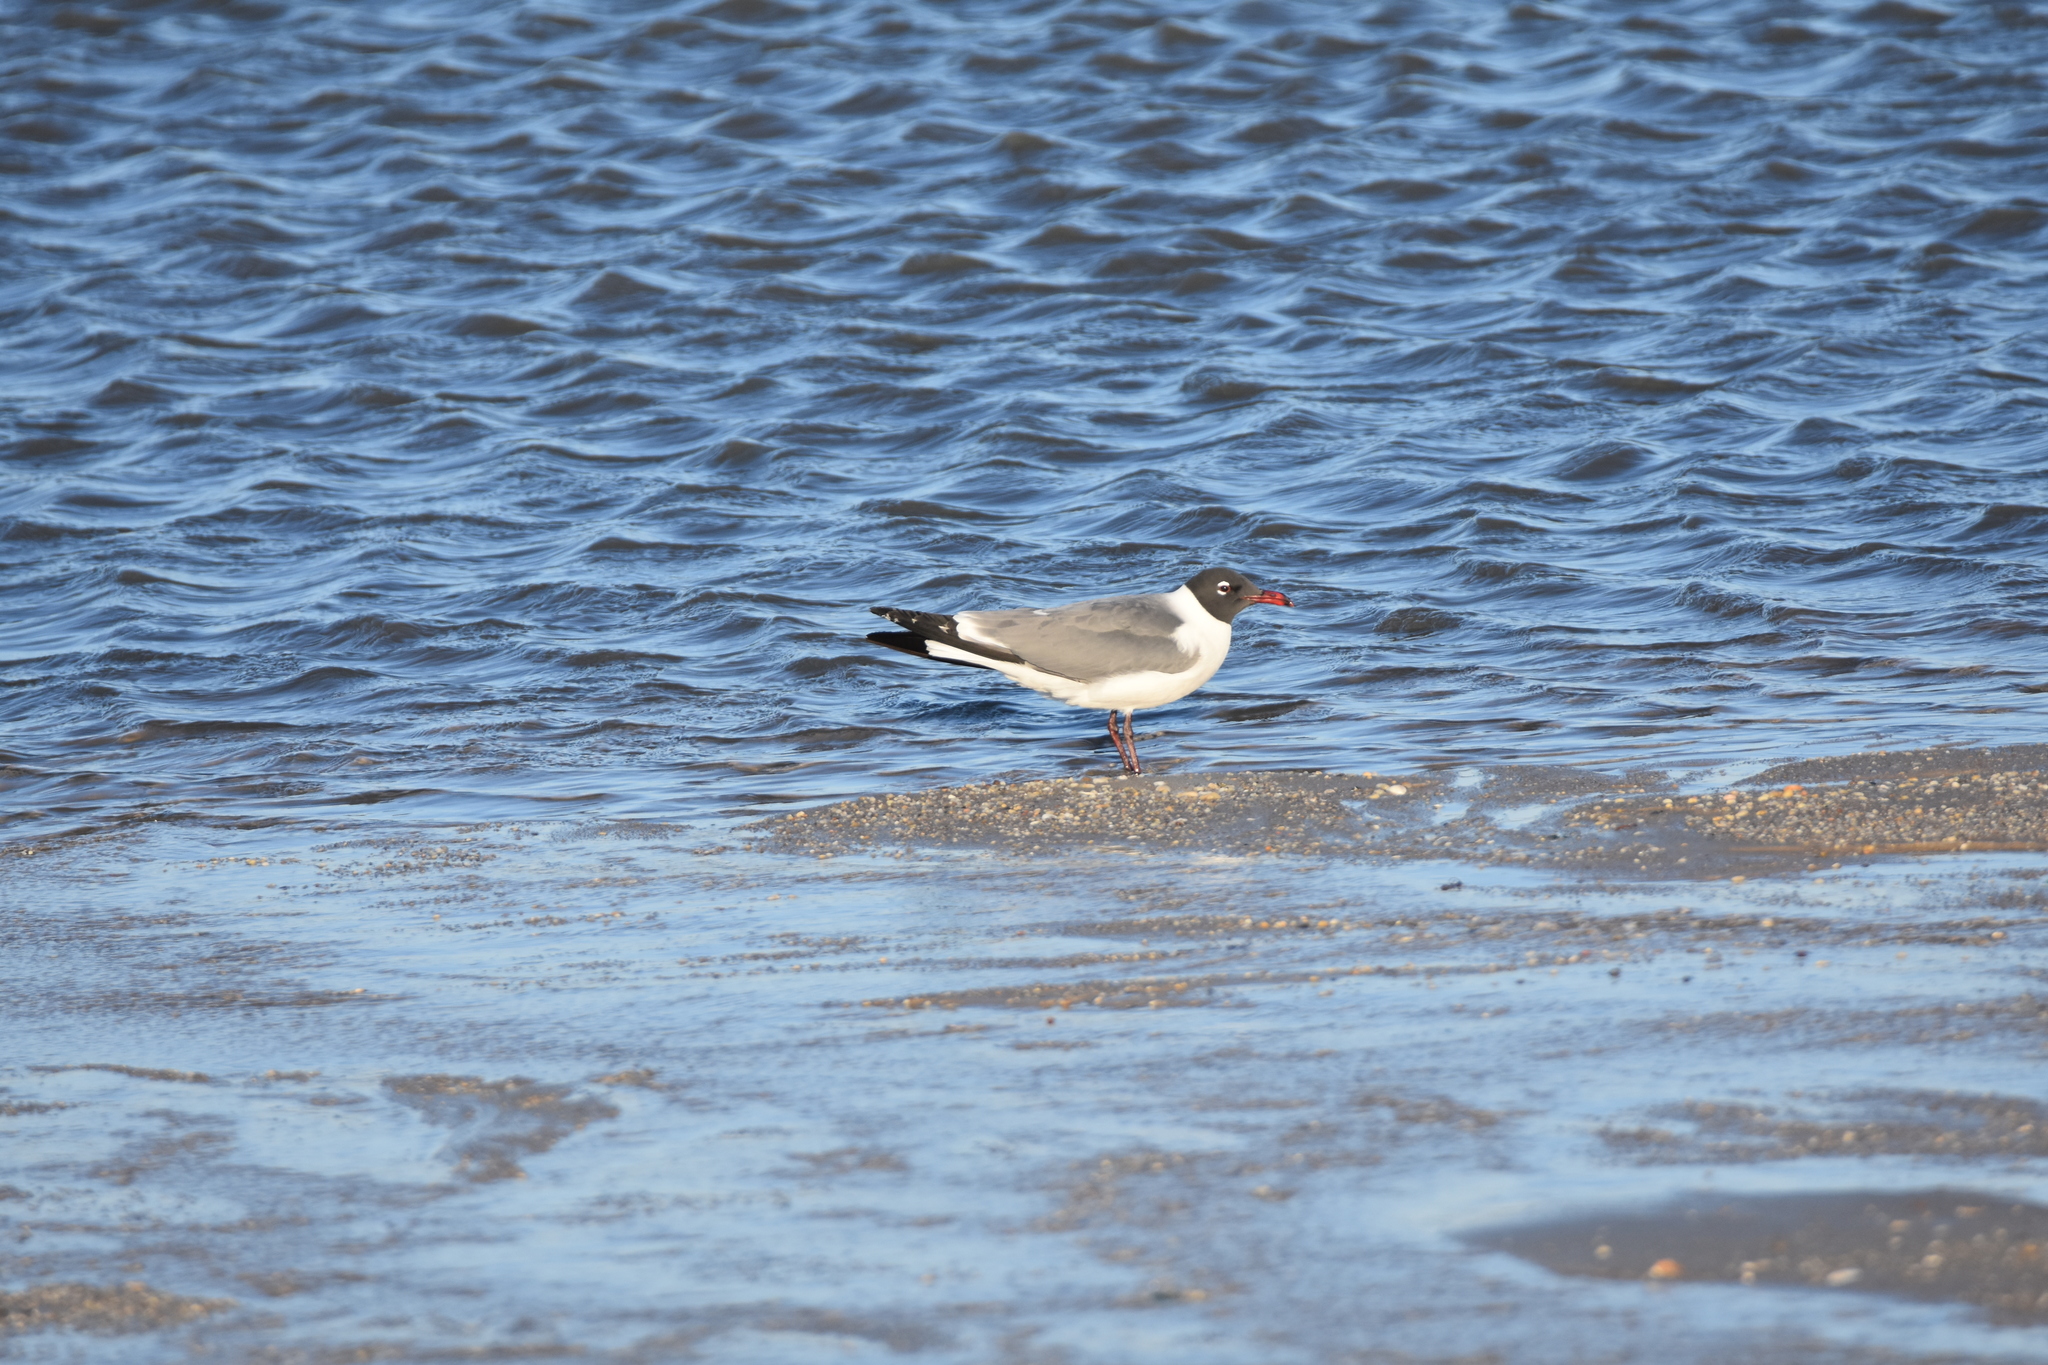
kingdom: Animalia
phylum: Chordata
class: Aves
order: Charadriiformes
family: Laridae
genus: Leucophaeus
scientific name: Leucophaeus atricilla
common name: Laughing gull
